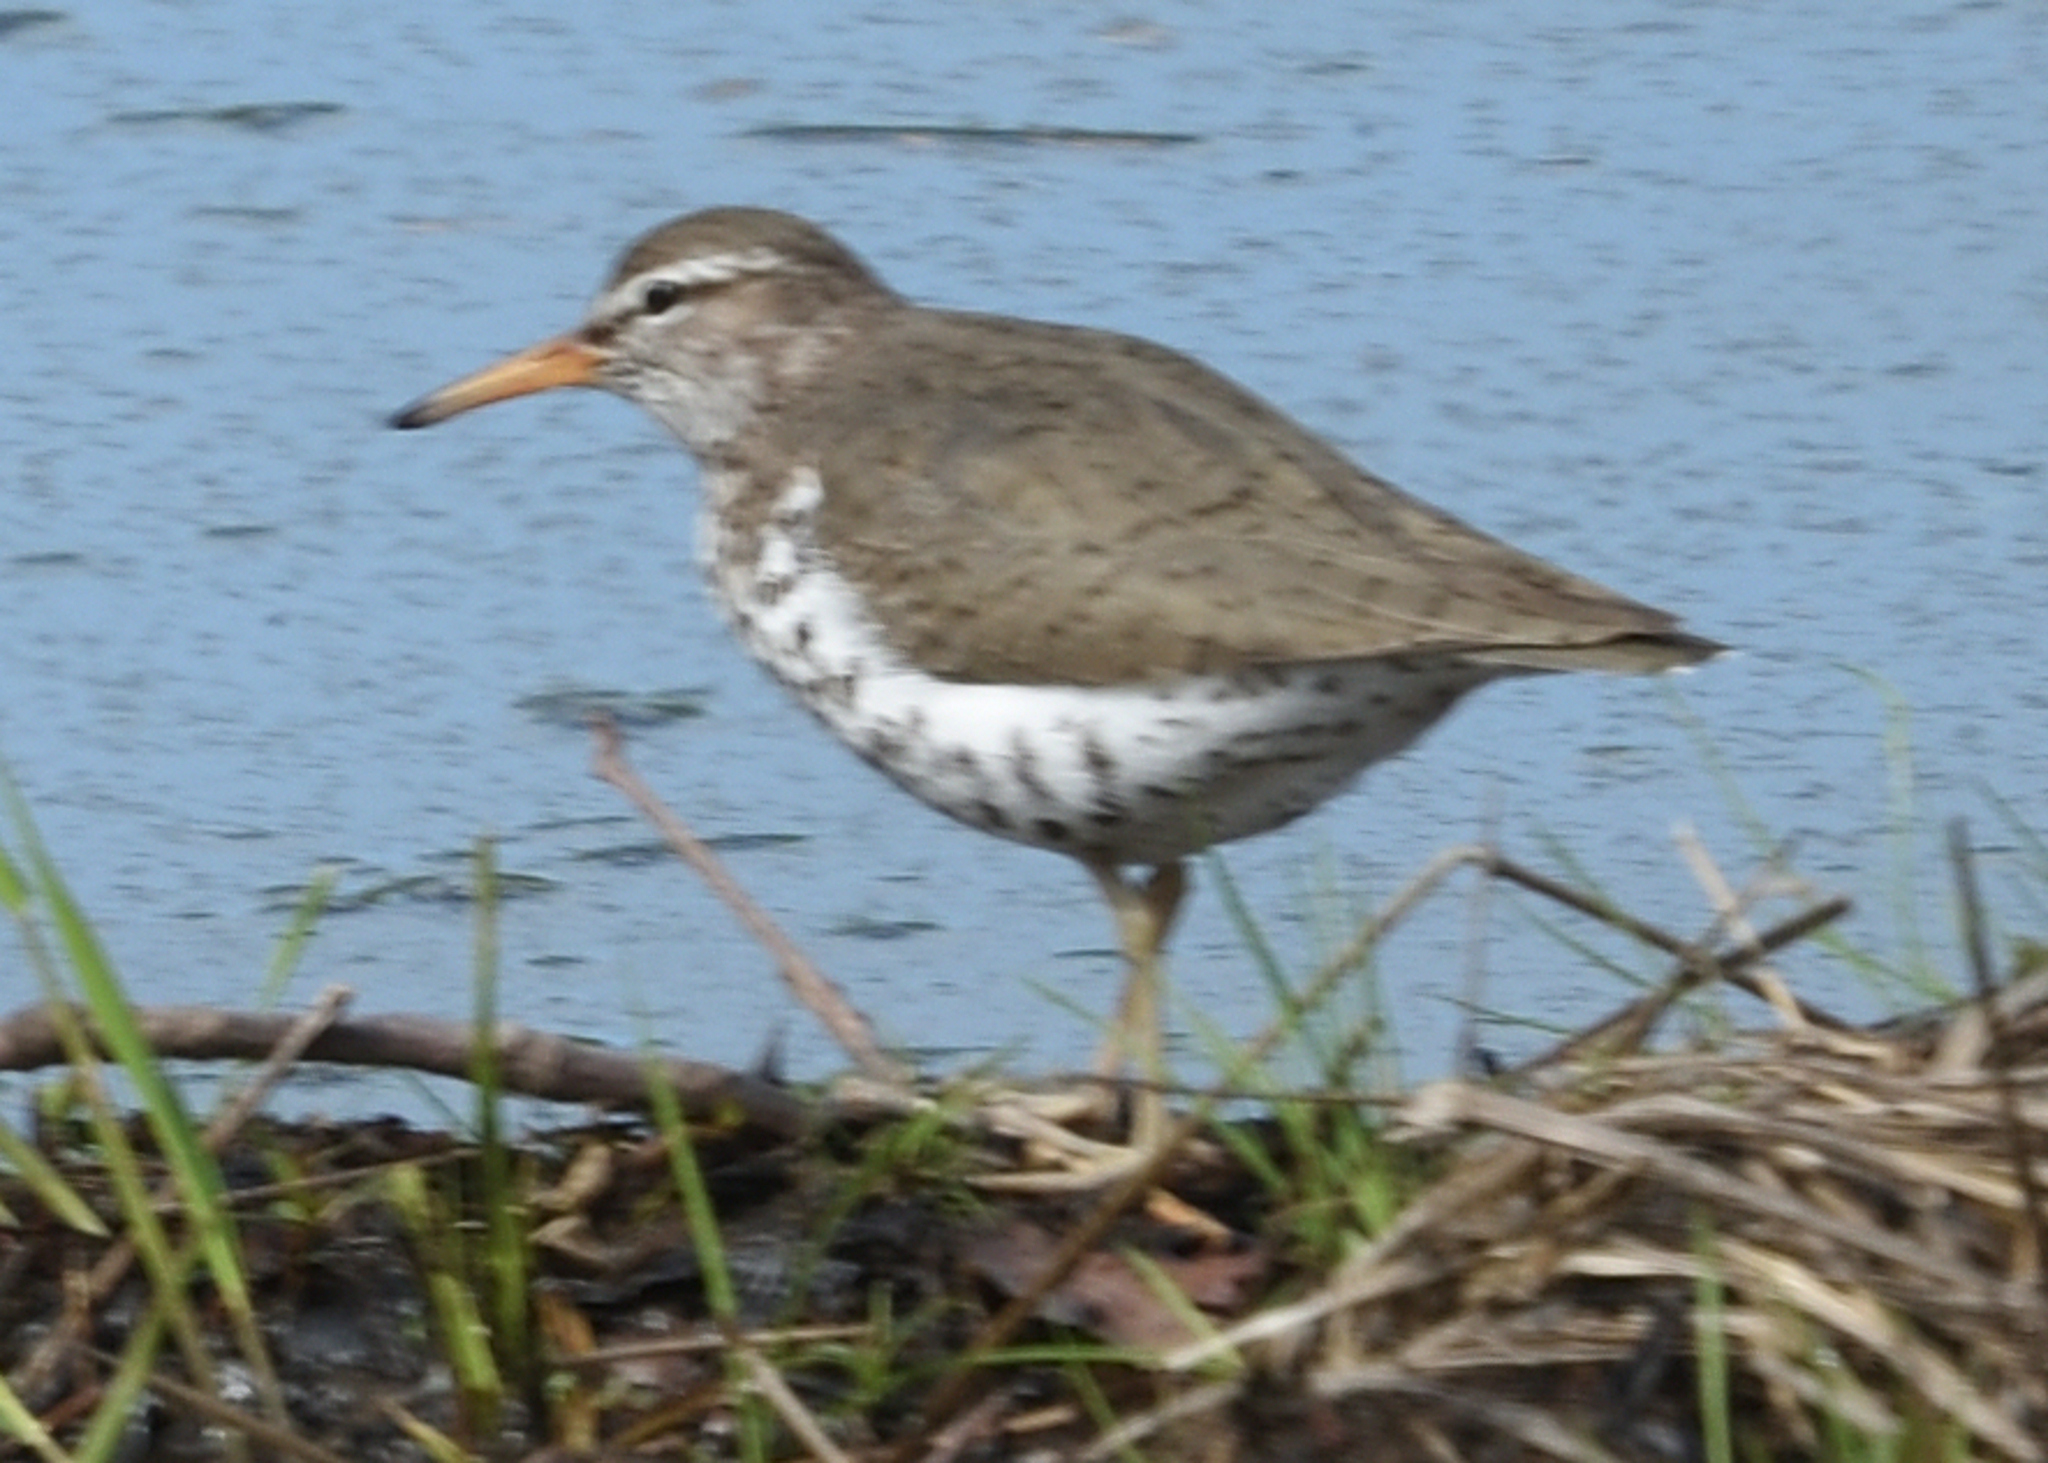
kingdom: Animalia
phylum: Chordata
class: Aves
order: Charadriiformes
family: Scolopacidae
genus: Actitis
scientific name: Actitis macularius
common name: Spotted sandpiper
